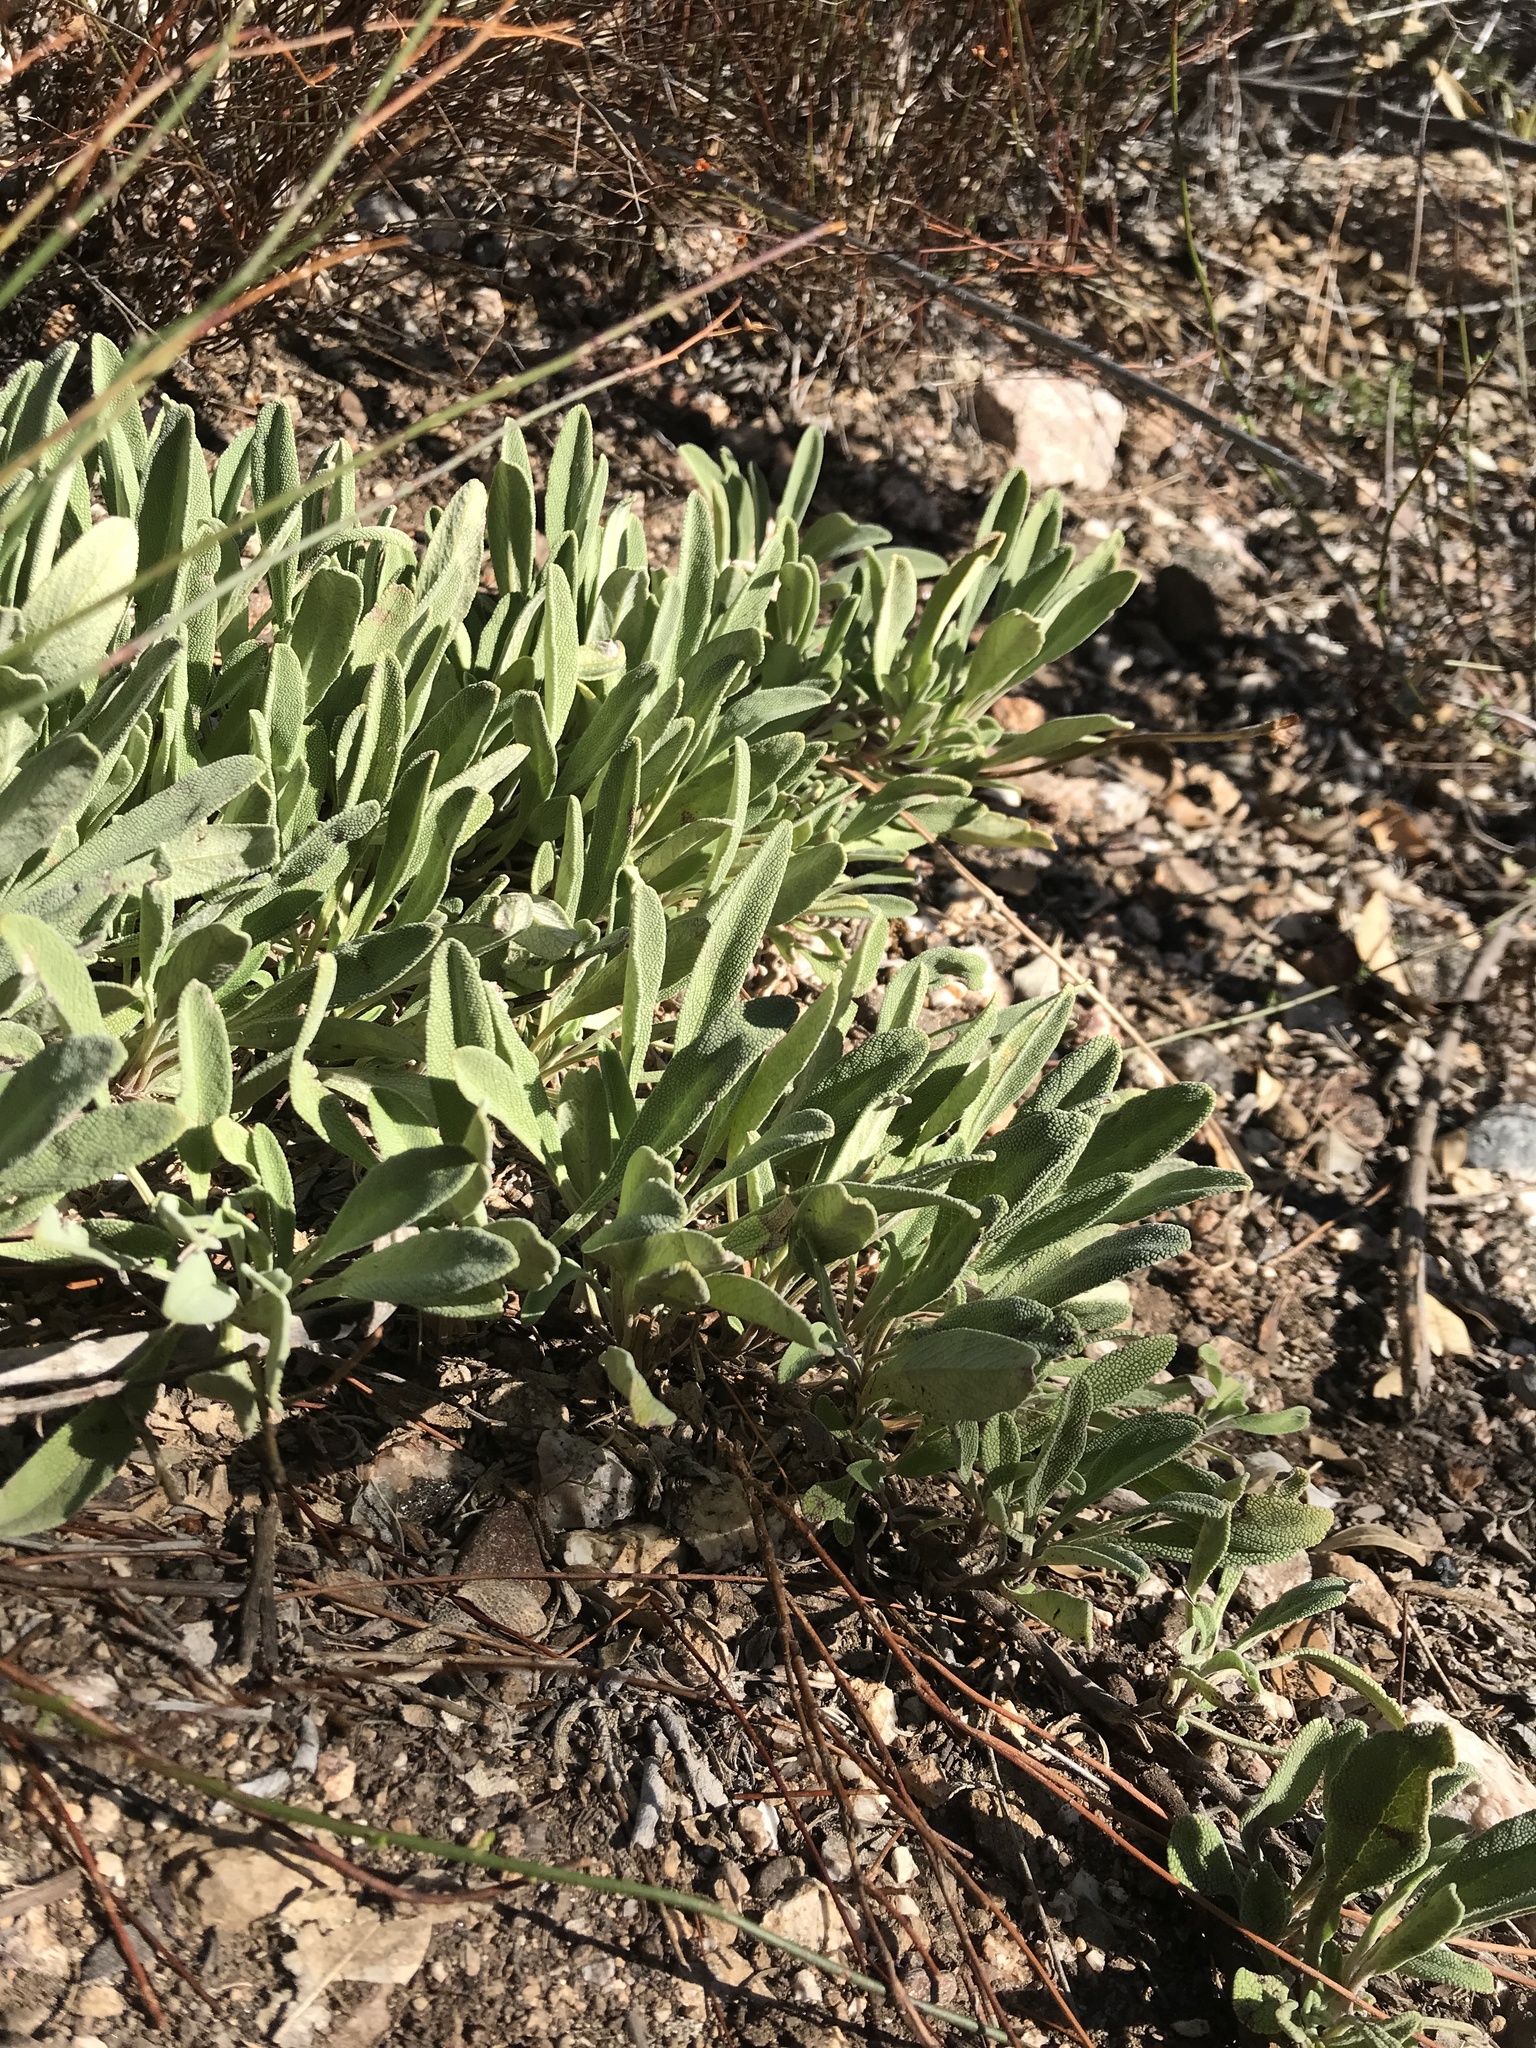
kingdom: Plantae
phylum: Tracheophyta
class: Magnoliopsida
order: Lamiales
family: Lamiaceae
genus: Salvia
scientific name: Salvia sonomensis
